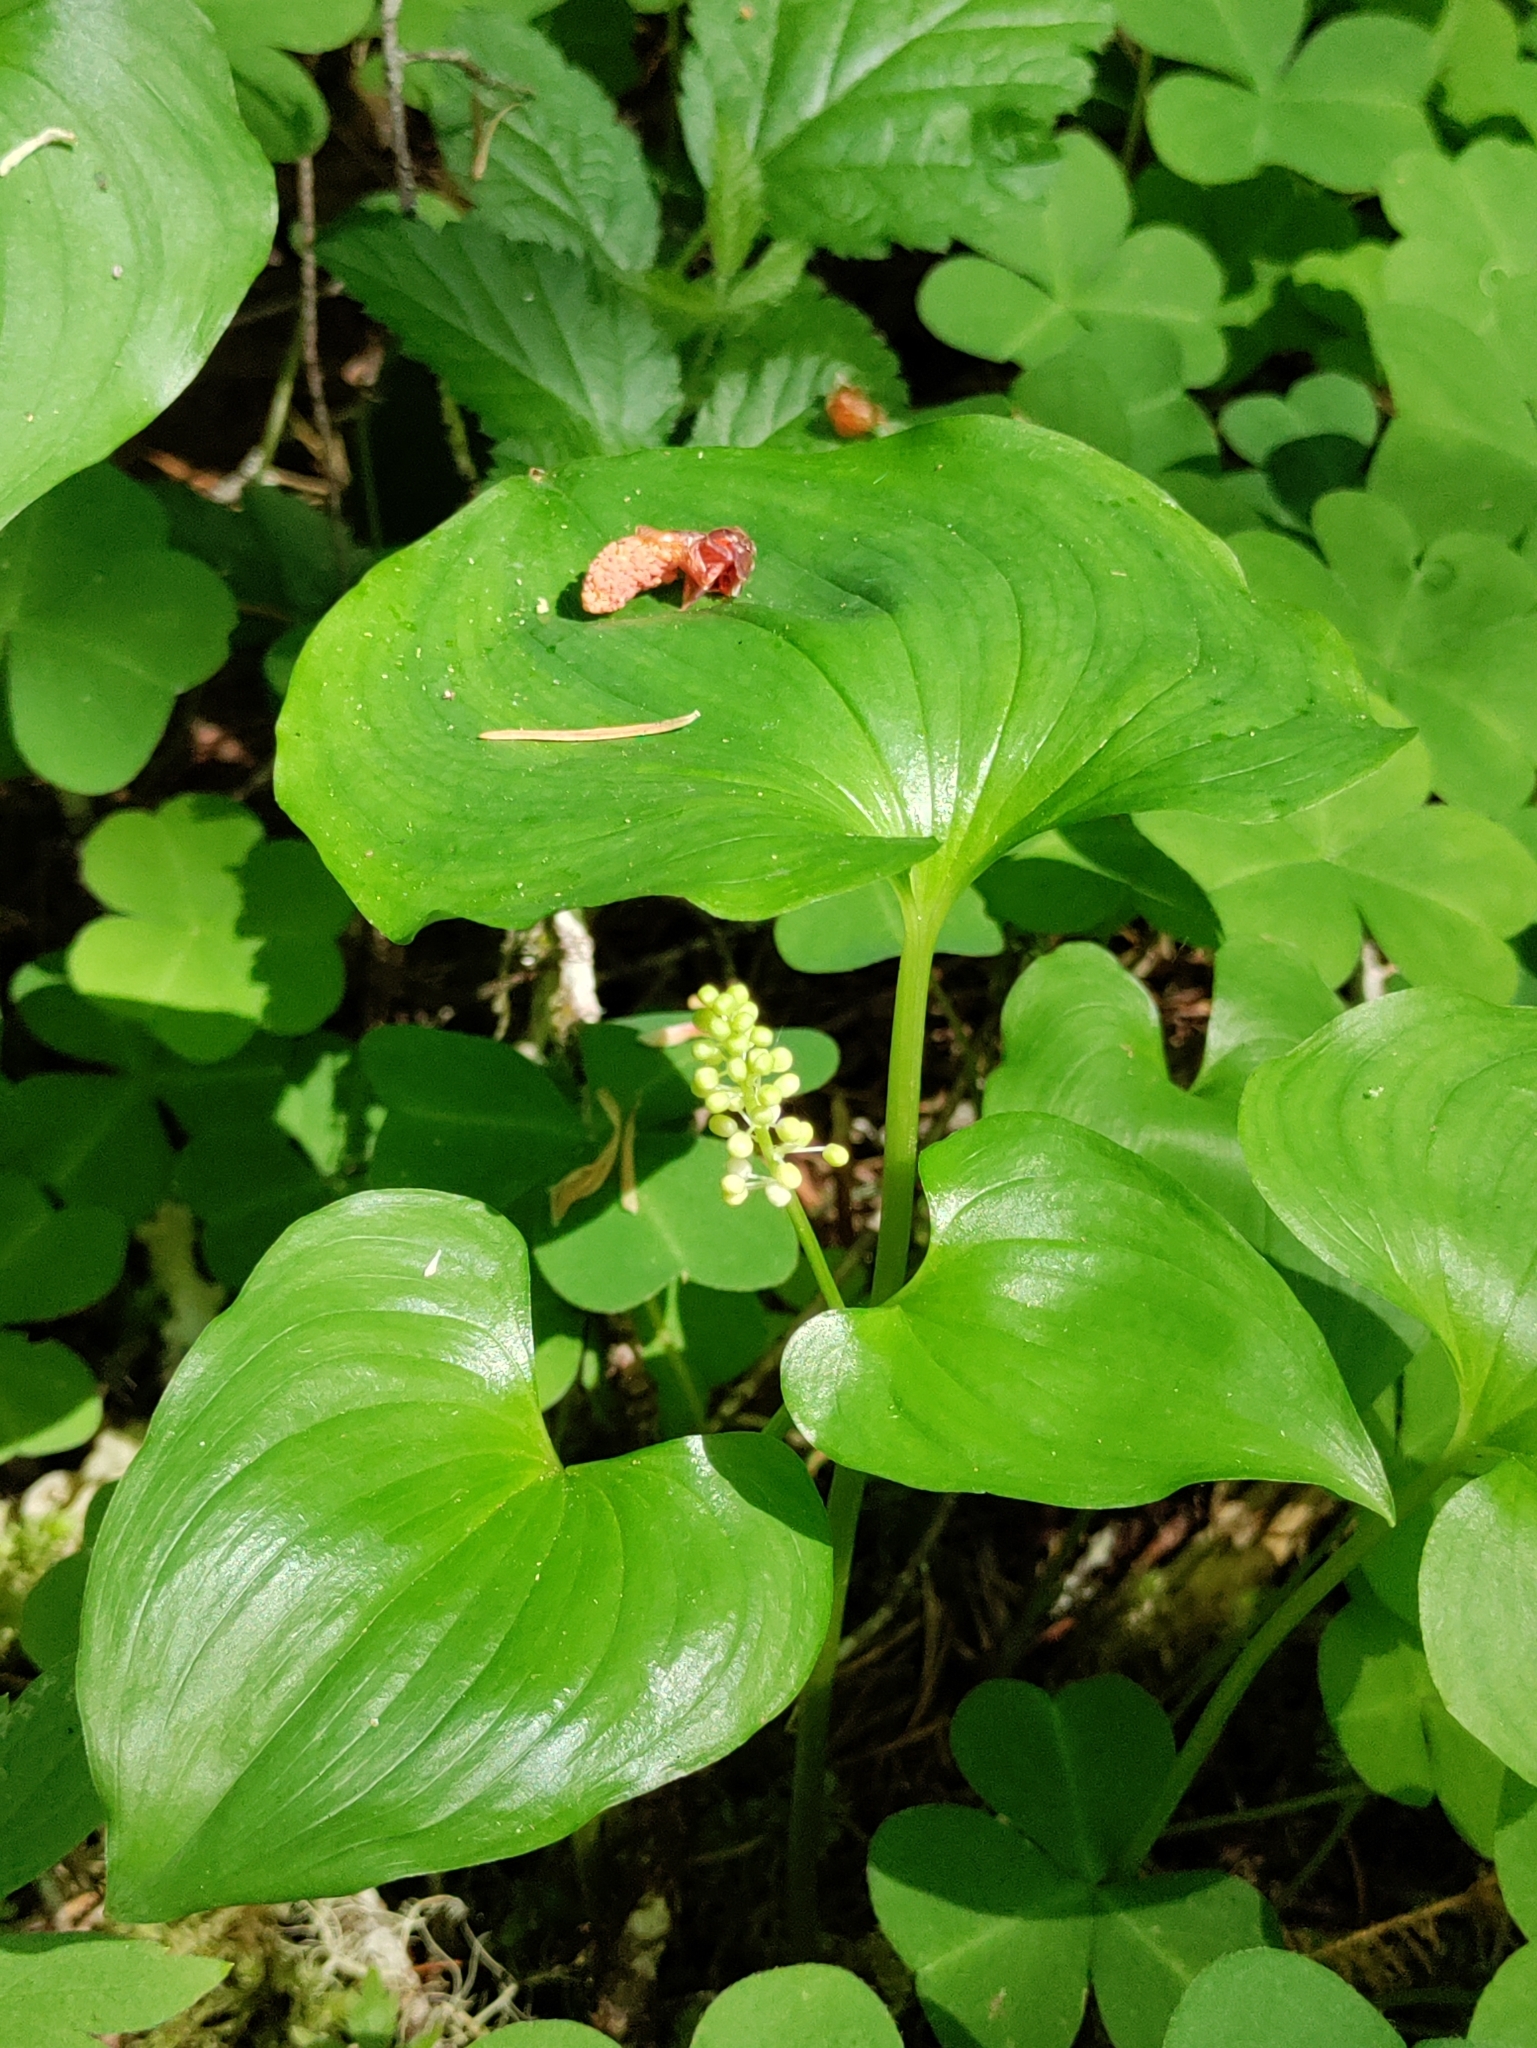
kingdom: Plantae
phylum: Tracheophyta
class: Liliopsida
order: Asparagales
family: Asparagaceae
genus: Maianthemum
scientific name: Maianthemum dilatatum
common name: False lily-of-the-valley
